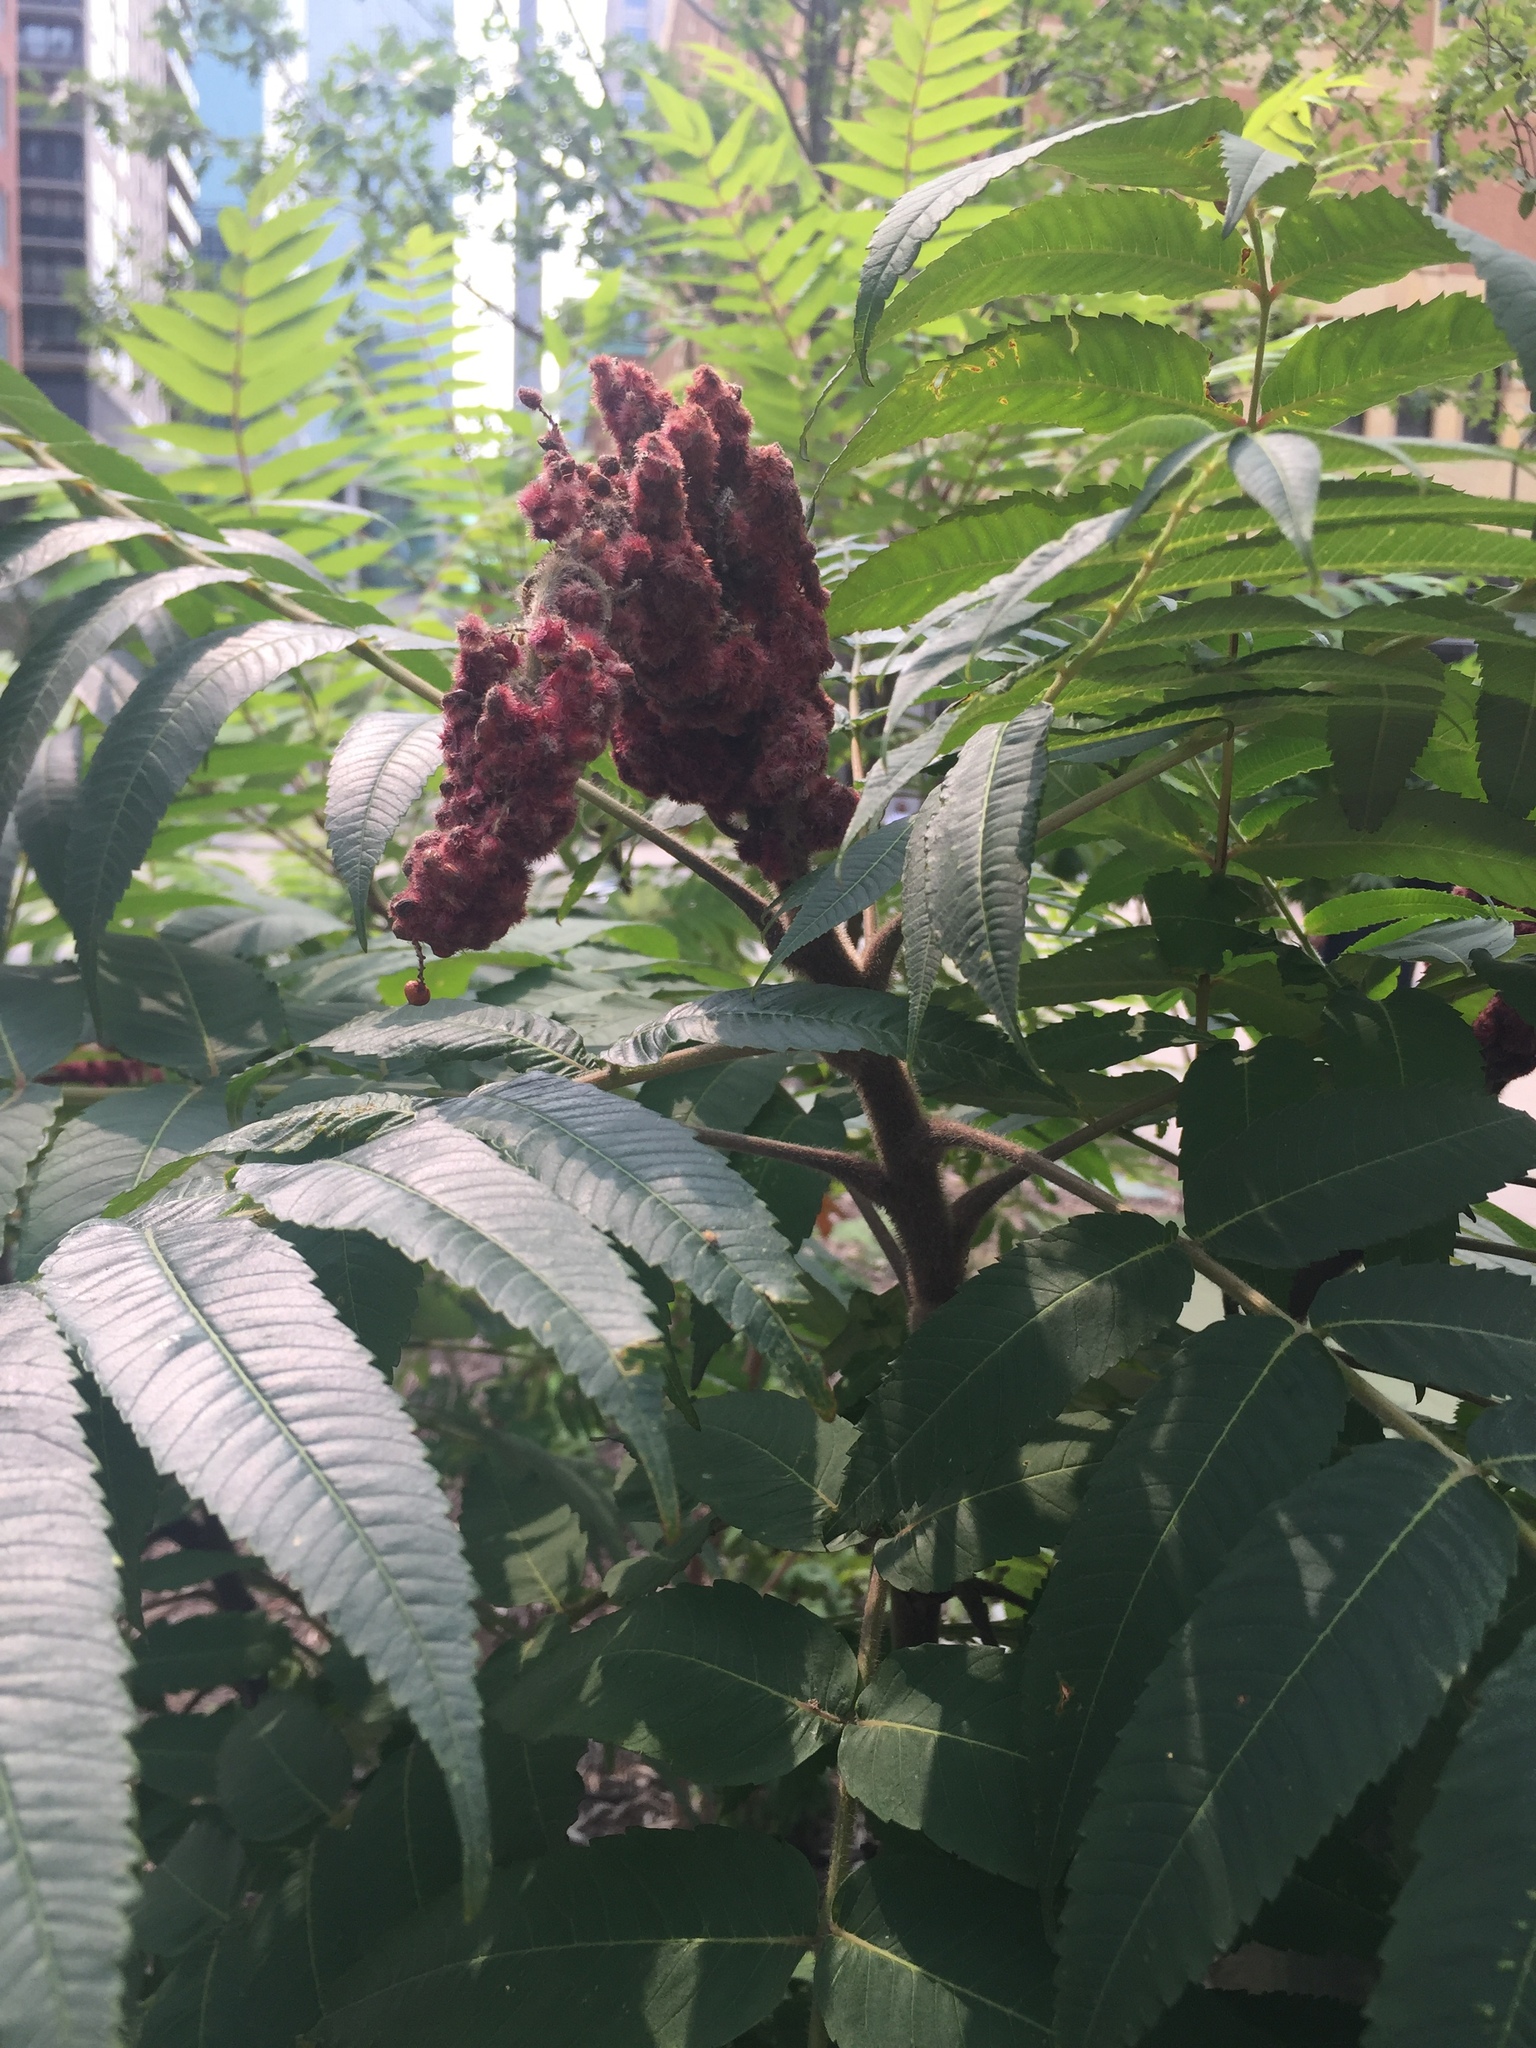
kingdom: Plantae
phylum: Tracheophyta
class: Magnoliopsida
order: Sapindales
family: Anacardiaceae
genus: Rhus
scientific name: Rhus typhina
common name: Staghorn sumac
